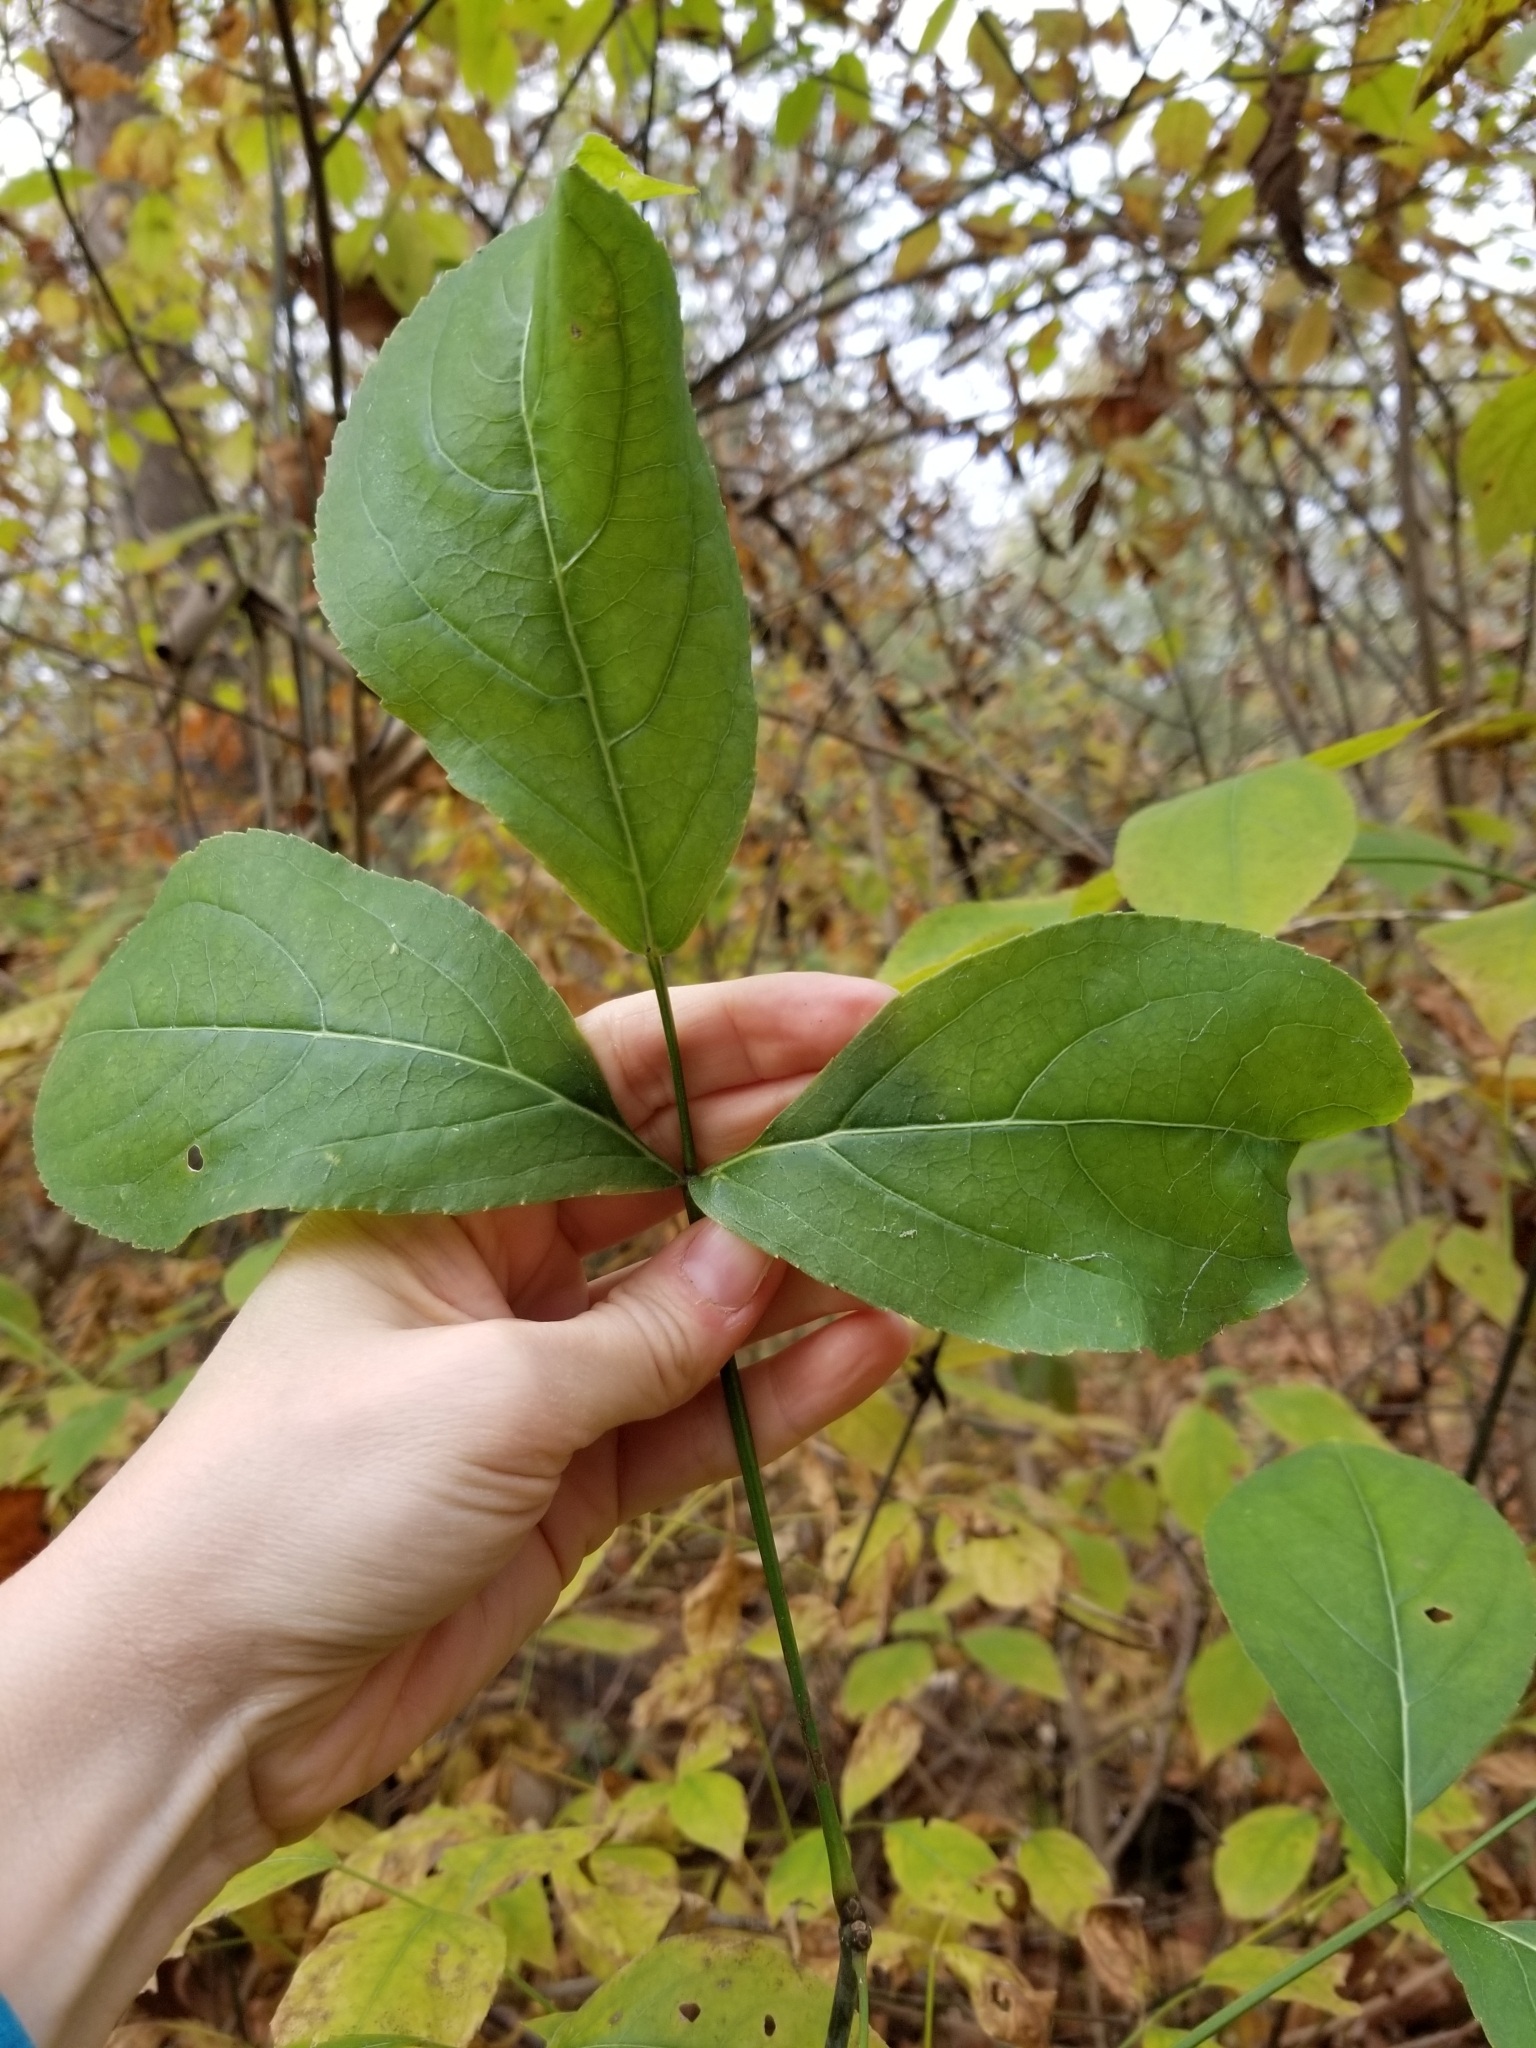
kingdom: Plantae
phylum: Tracheophyta
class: Magnoliopsida
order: Crossosomatales
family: Staphyleaceae
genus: Staphylea
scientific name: Staphylea trifolia
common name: American bladdernut
